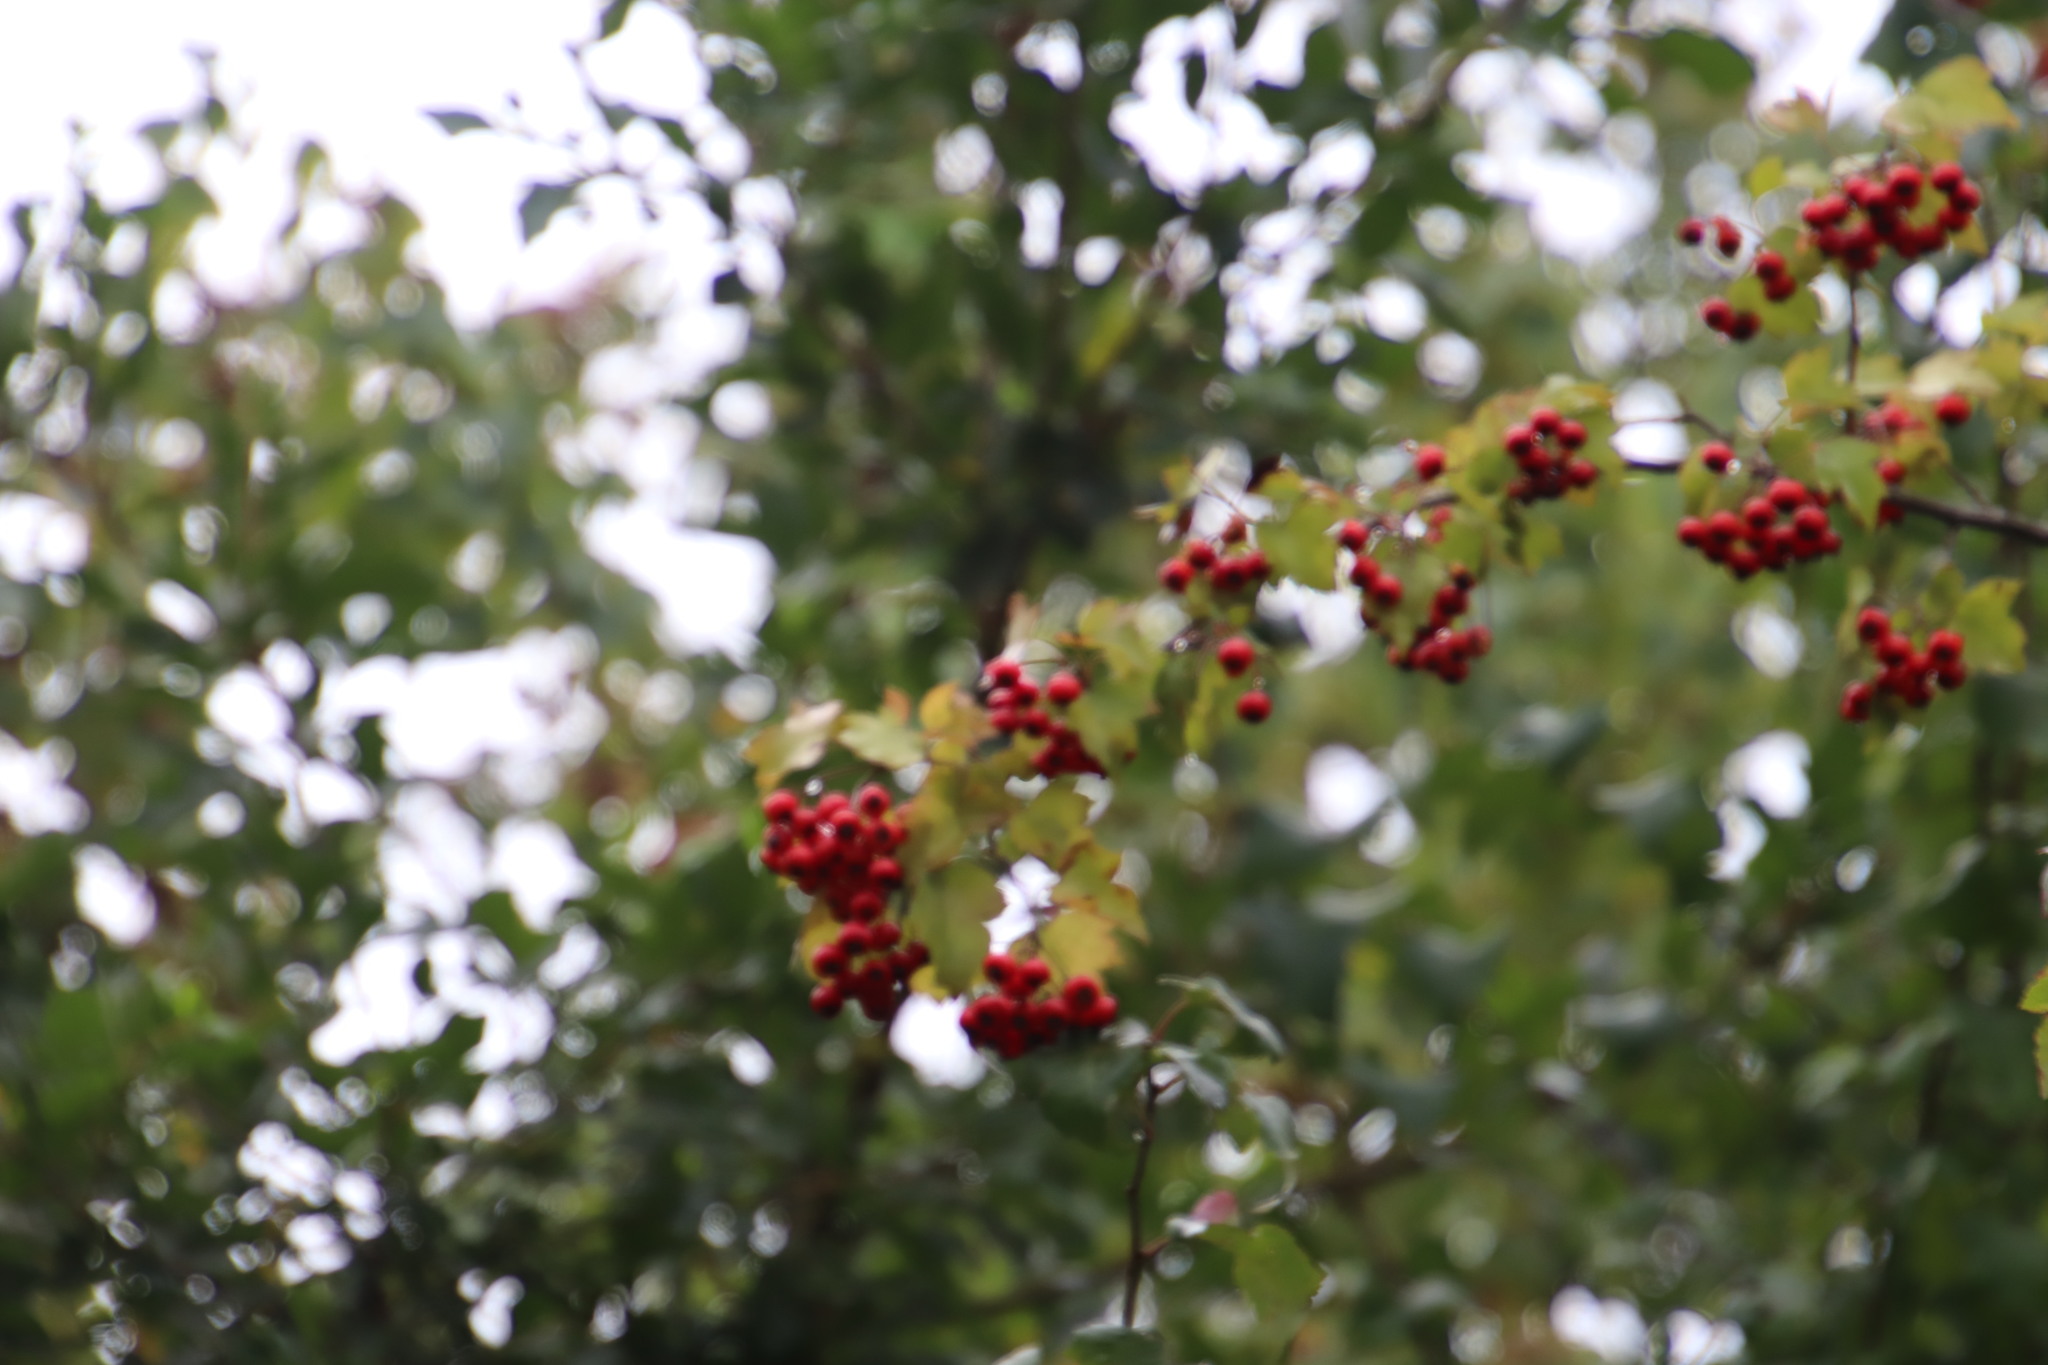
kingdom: Plantae
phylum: Tracheophyta
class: Magnoliopsida
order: Rosales
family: Rosaceae
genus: Crataegus
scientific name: Crataegus laevigata
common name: Midland hawthorn
